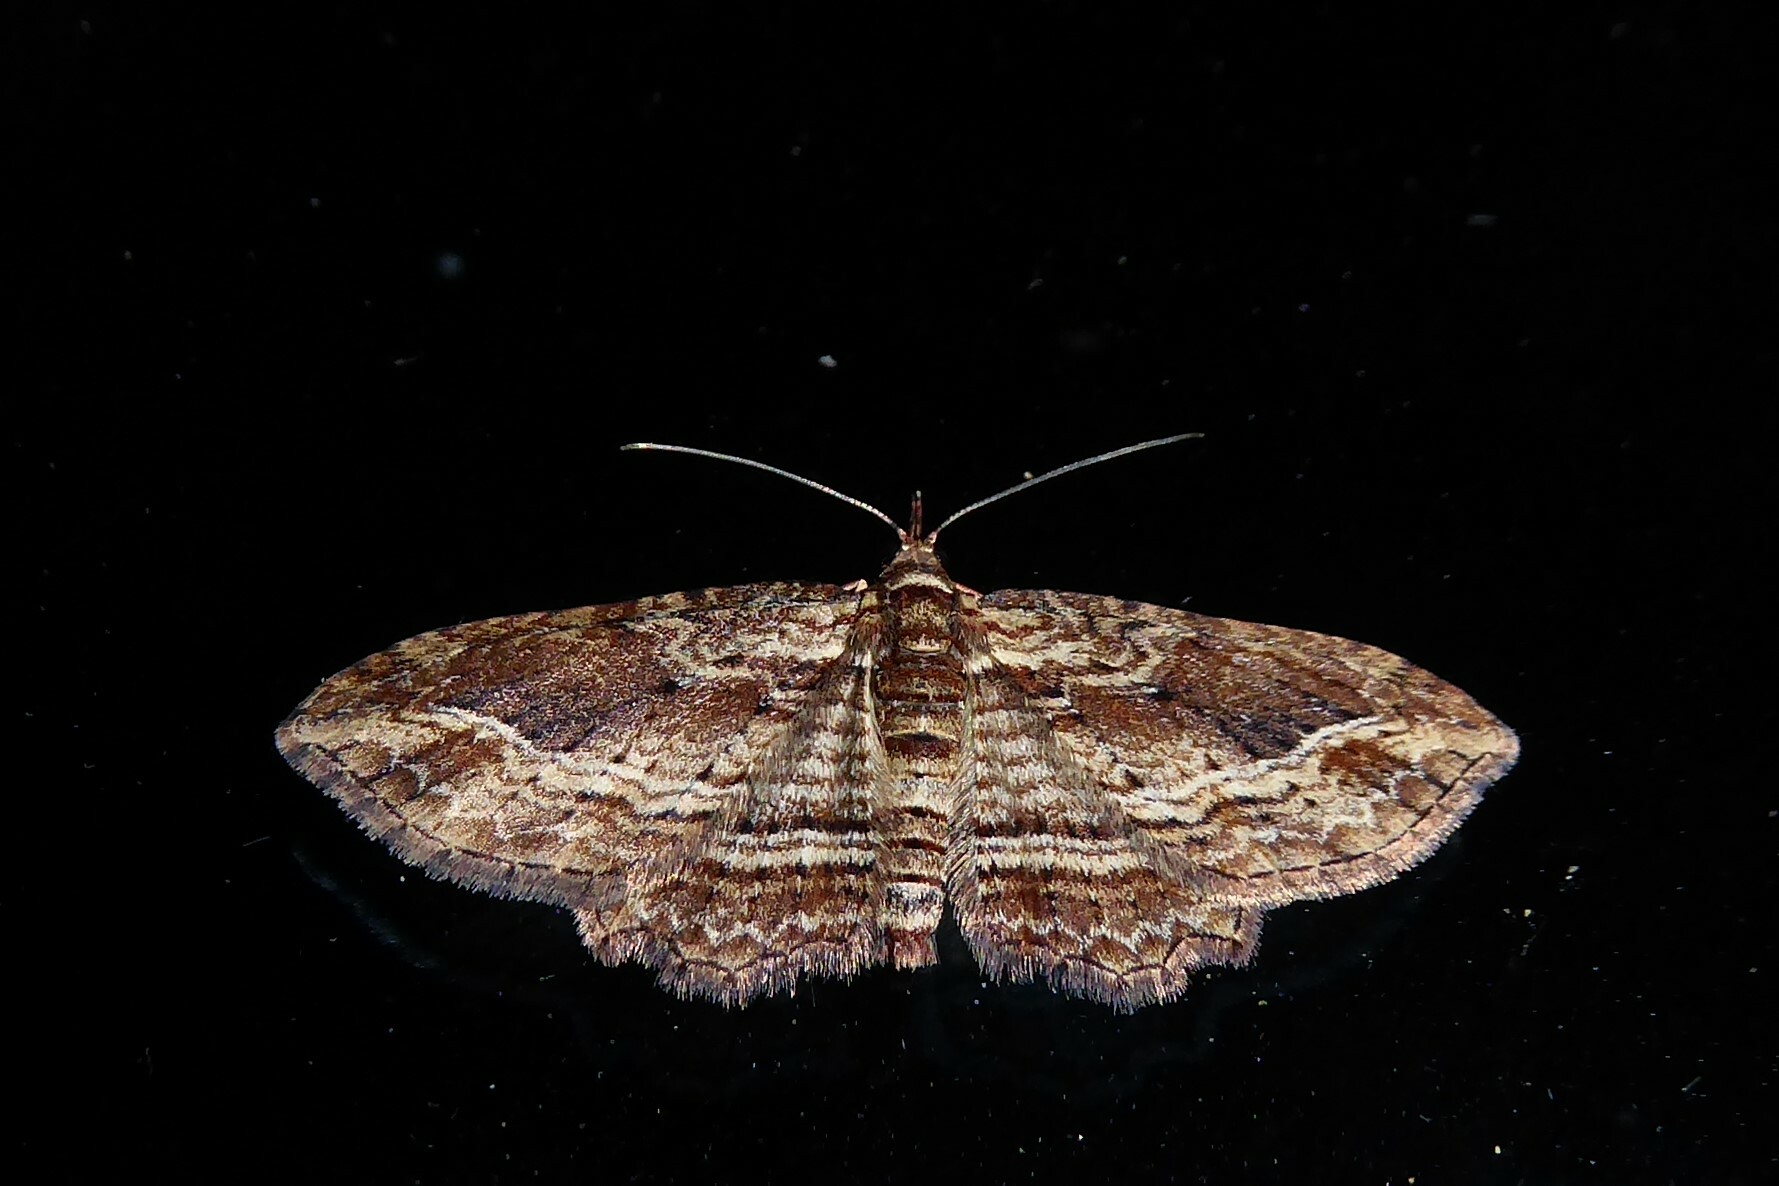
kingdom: Animalia
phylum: Arthropoda
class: Insecta
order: Lepidoptera
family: Geometridae
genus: Chloroclystis
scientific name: Chloroclystis filata
